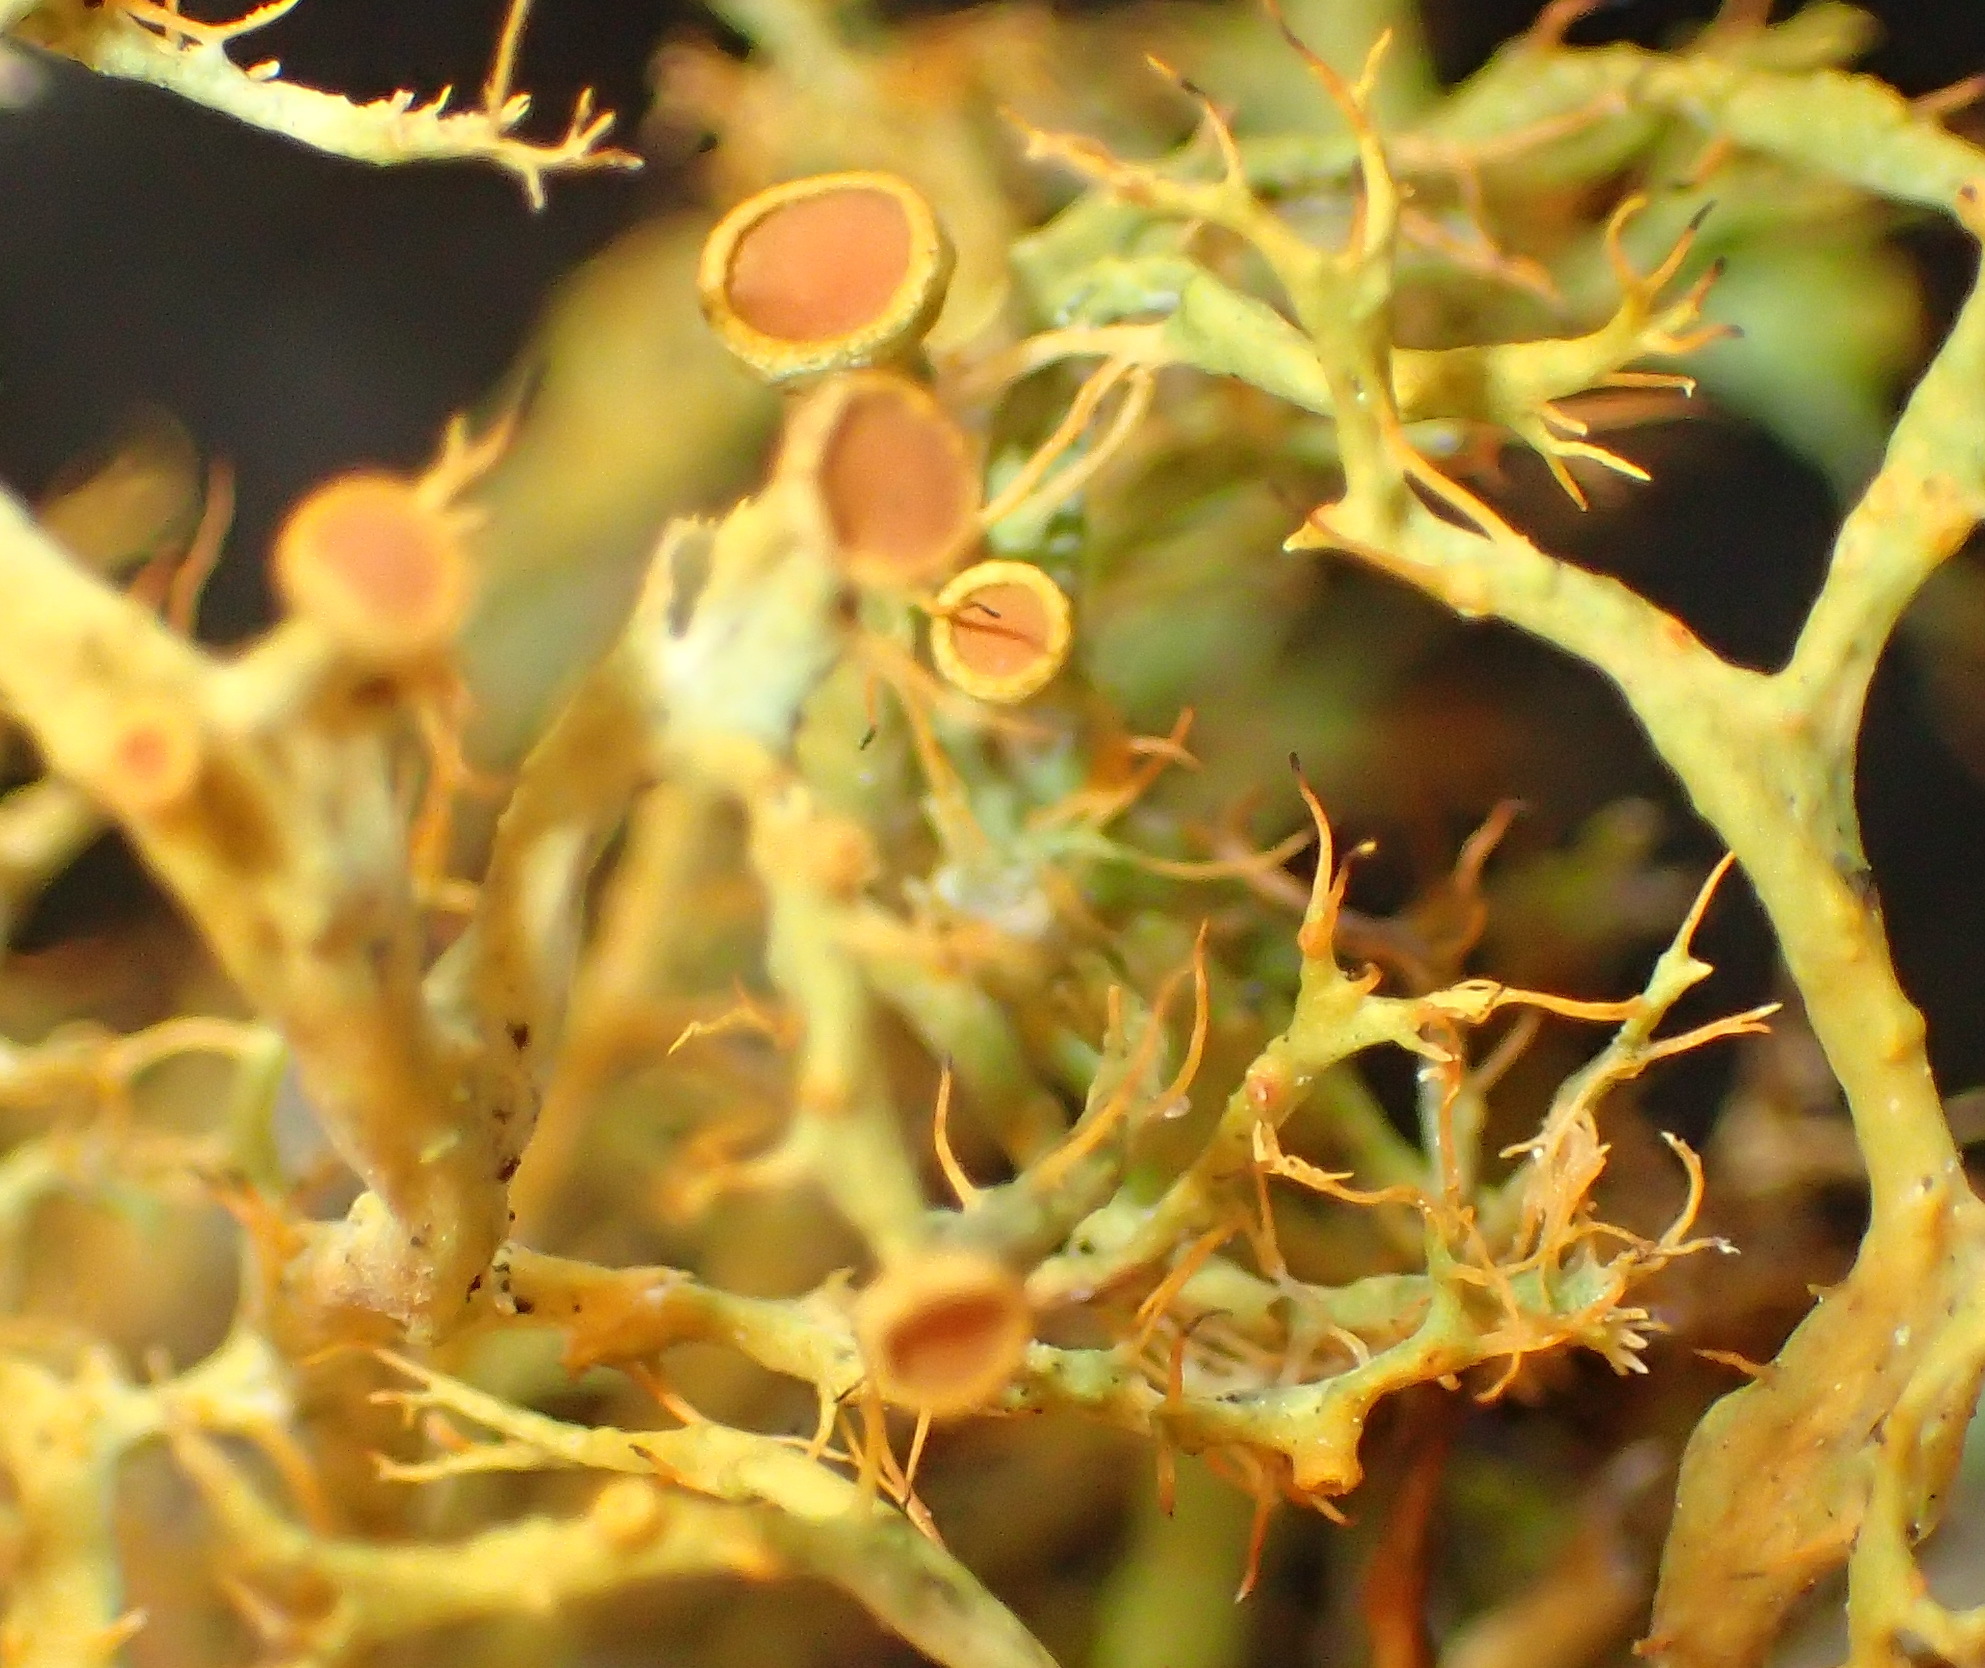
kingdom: Fungi
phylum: Ascomycota
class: Lecanoromycetes
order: Teloschistales
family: Teloschistaceae
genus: Teloschistes
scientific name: Teloschistes inflatus
